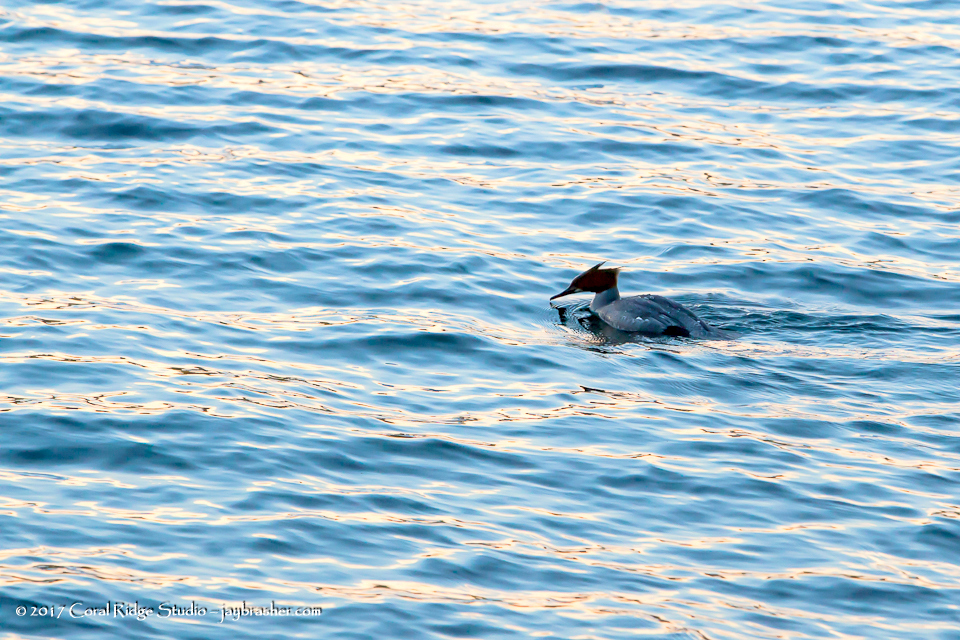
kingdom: Animalia
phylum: Chordata
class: Aves
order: Anseriformes
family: Anatidae
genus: Mergus
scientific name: Mergus merganser
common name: Common merganser
